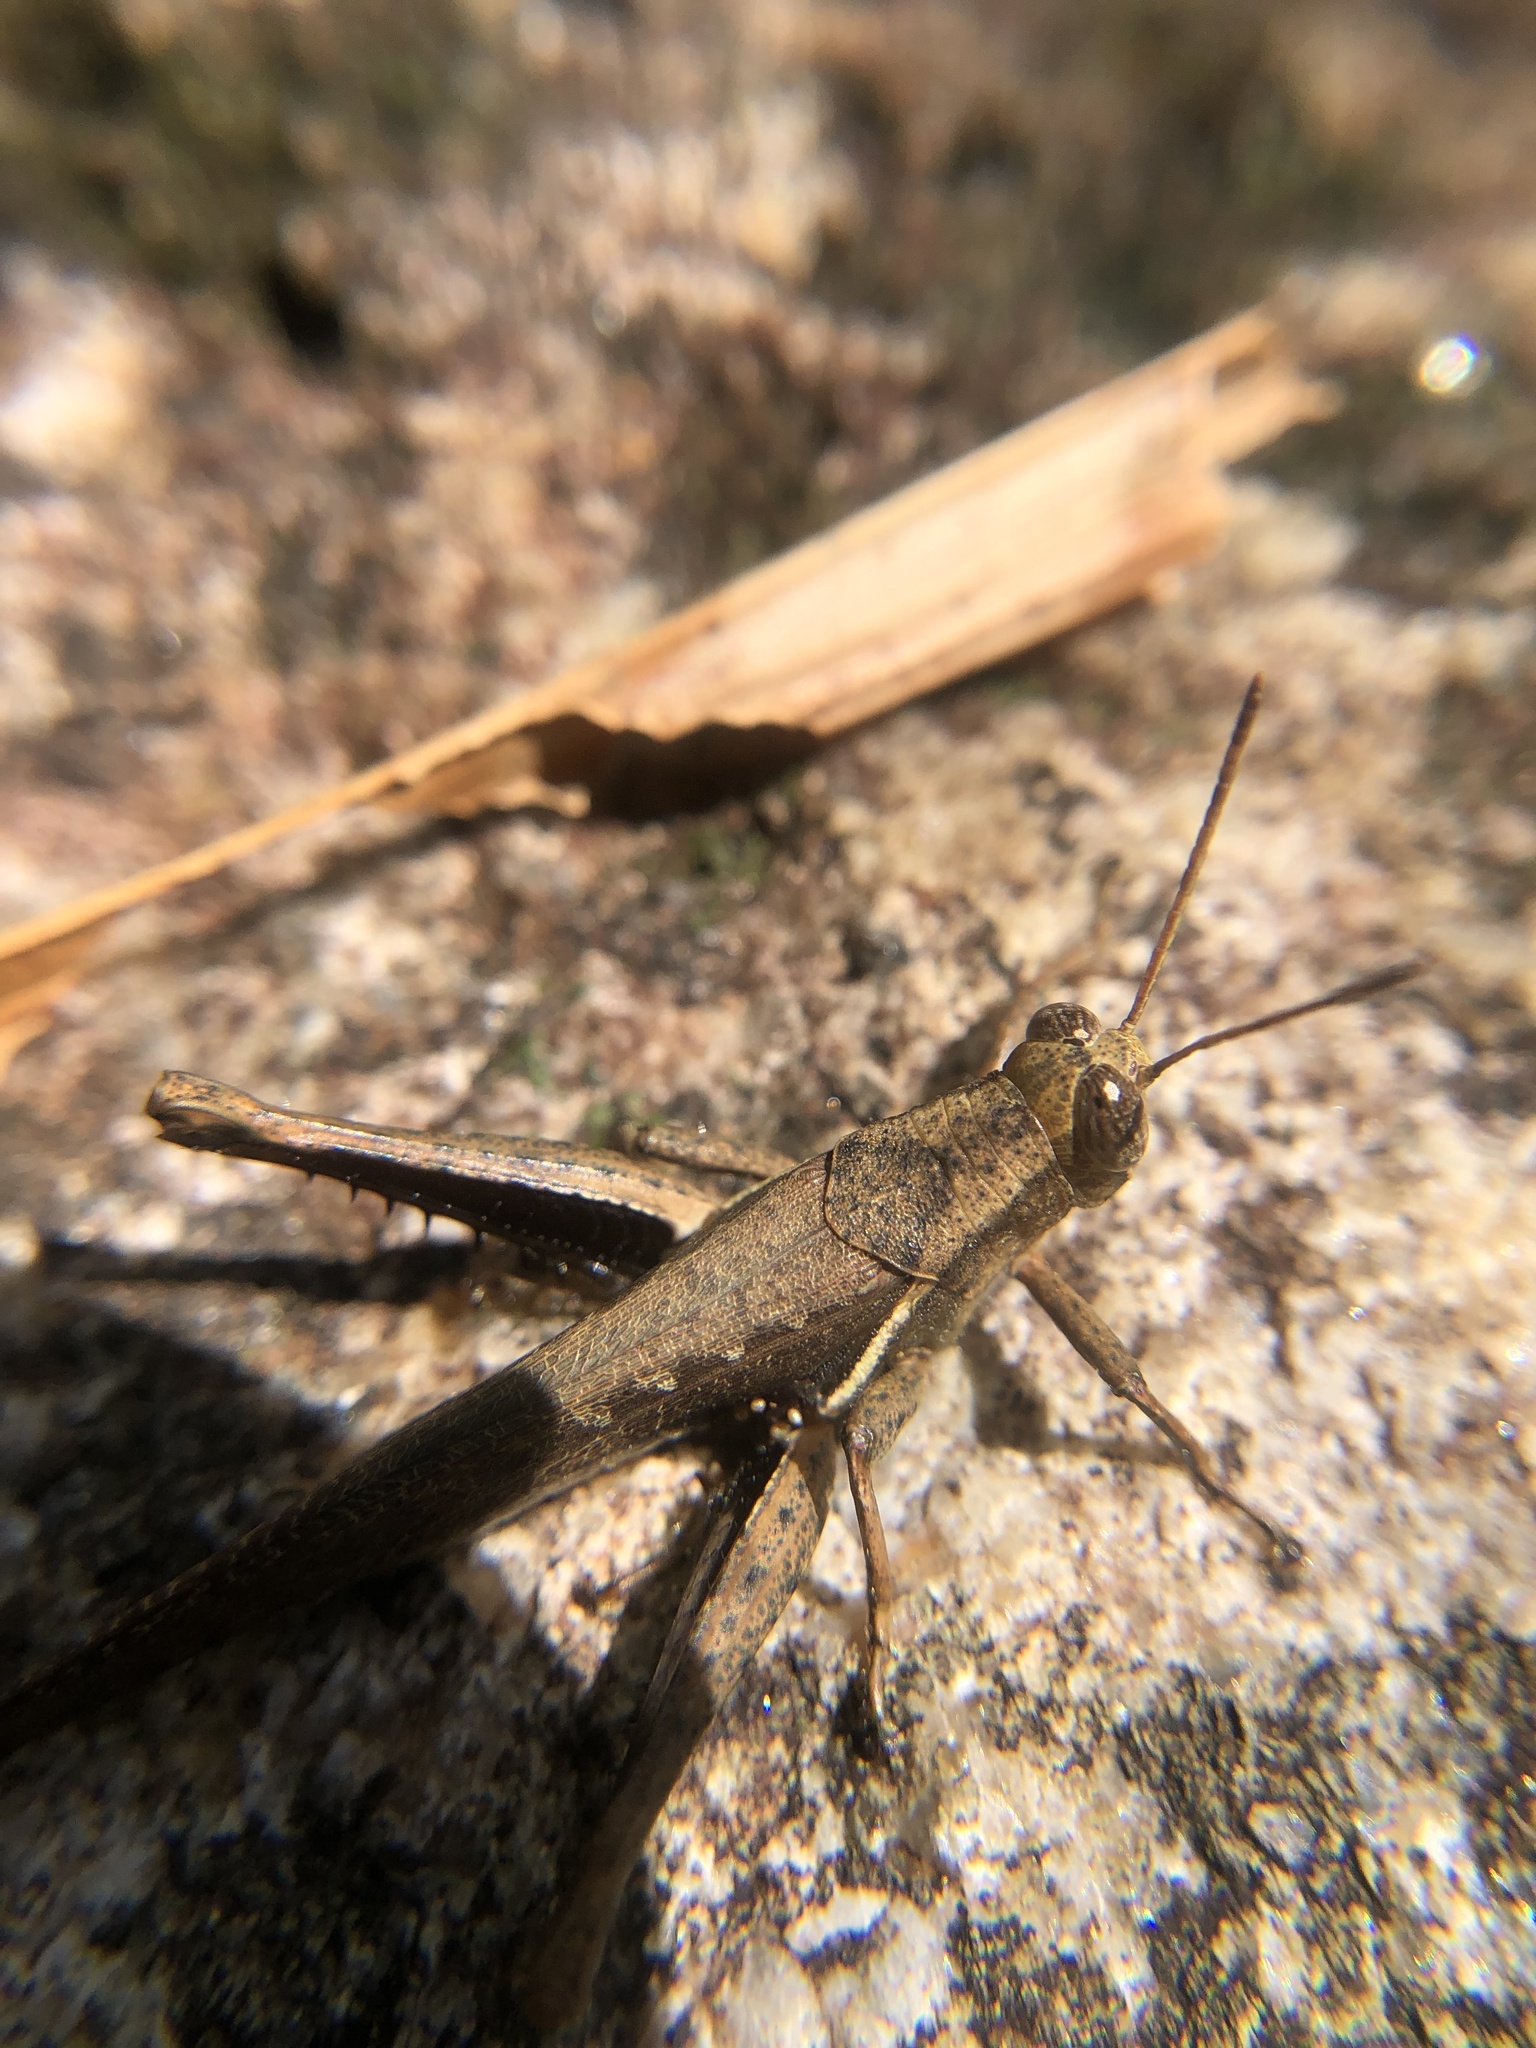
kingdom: Animalia
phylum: Arthropoda
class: Insecta
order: Orthoptera
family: Acrididae
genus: Abracris
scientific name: Abracris flavolineata
